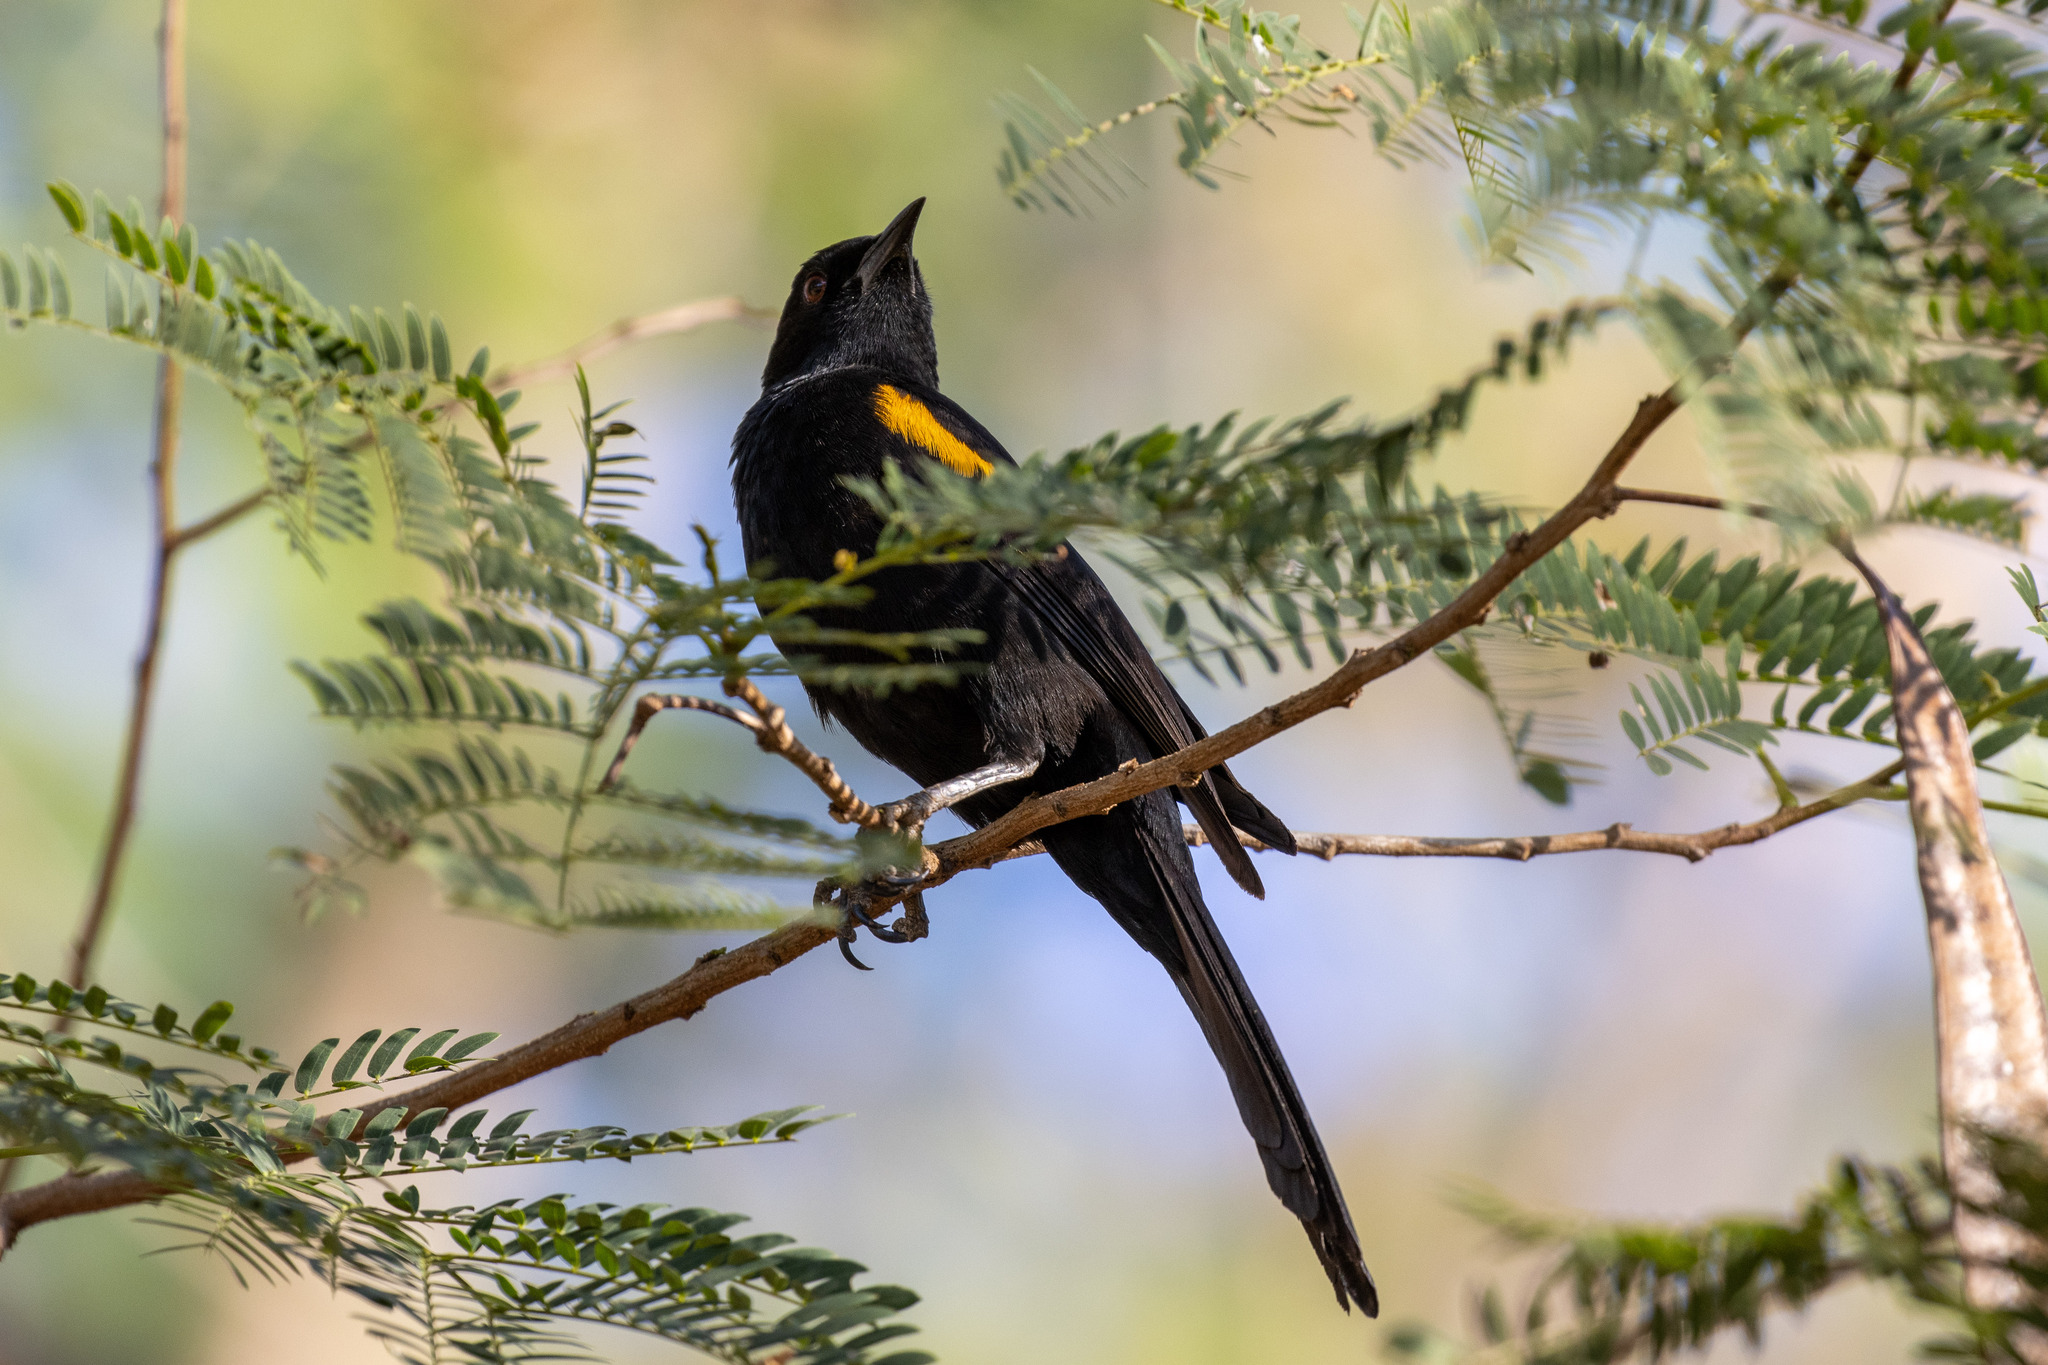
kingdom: Animalia
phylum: Chordata
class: Aves
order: Passeriformes
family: Icteridae
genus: Icterus
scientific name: Icterus cayanensis
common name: Epaulet oriole
